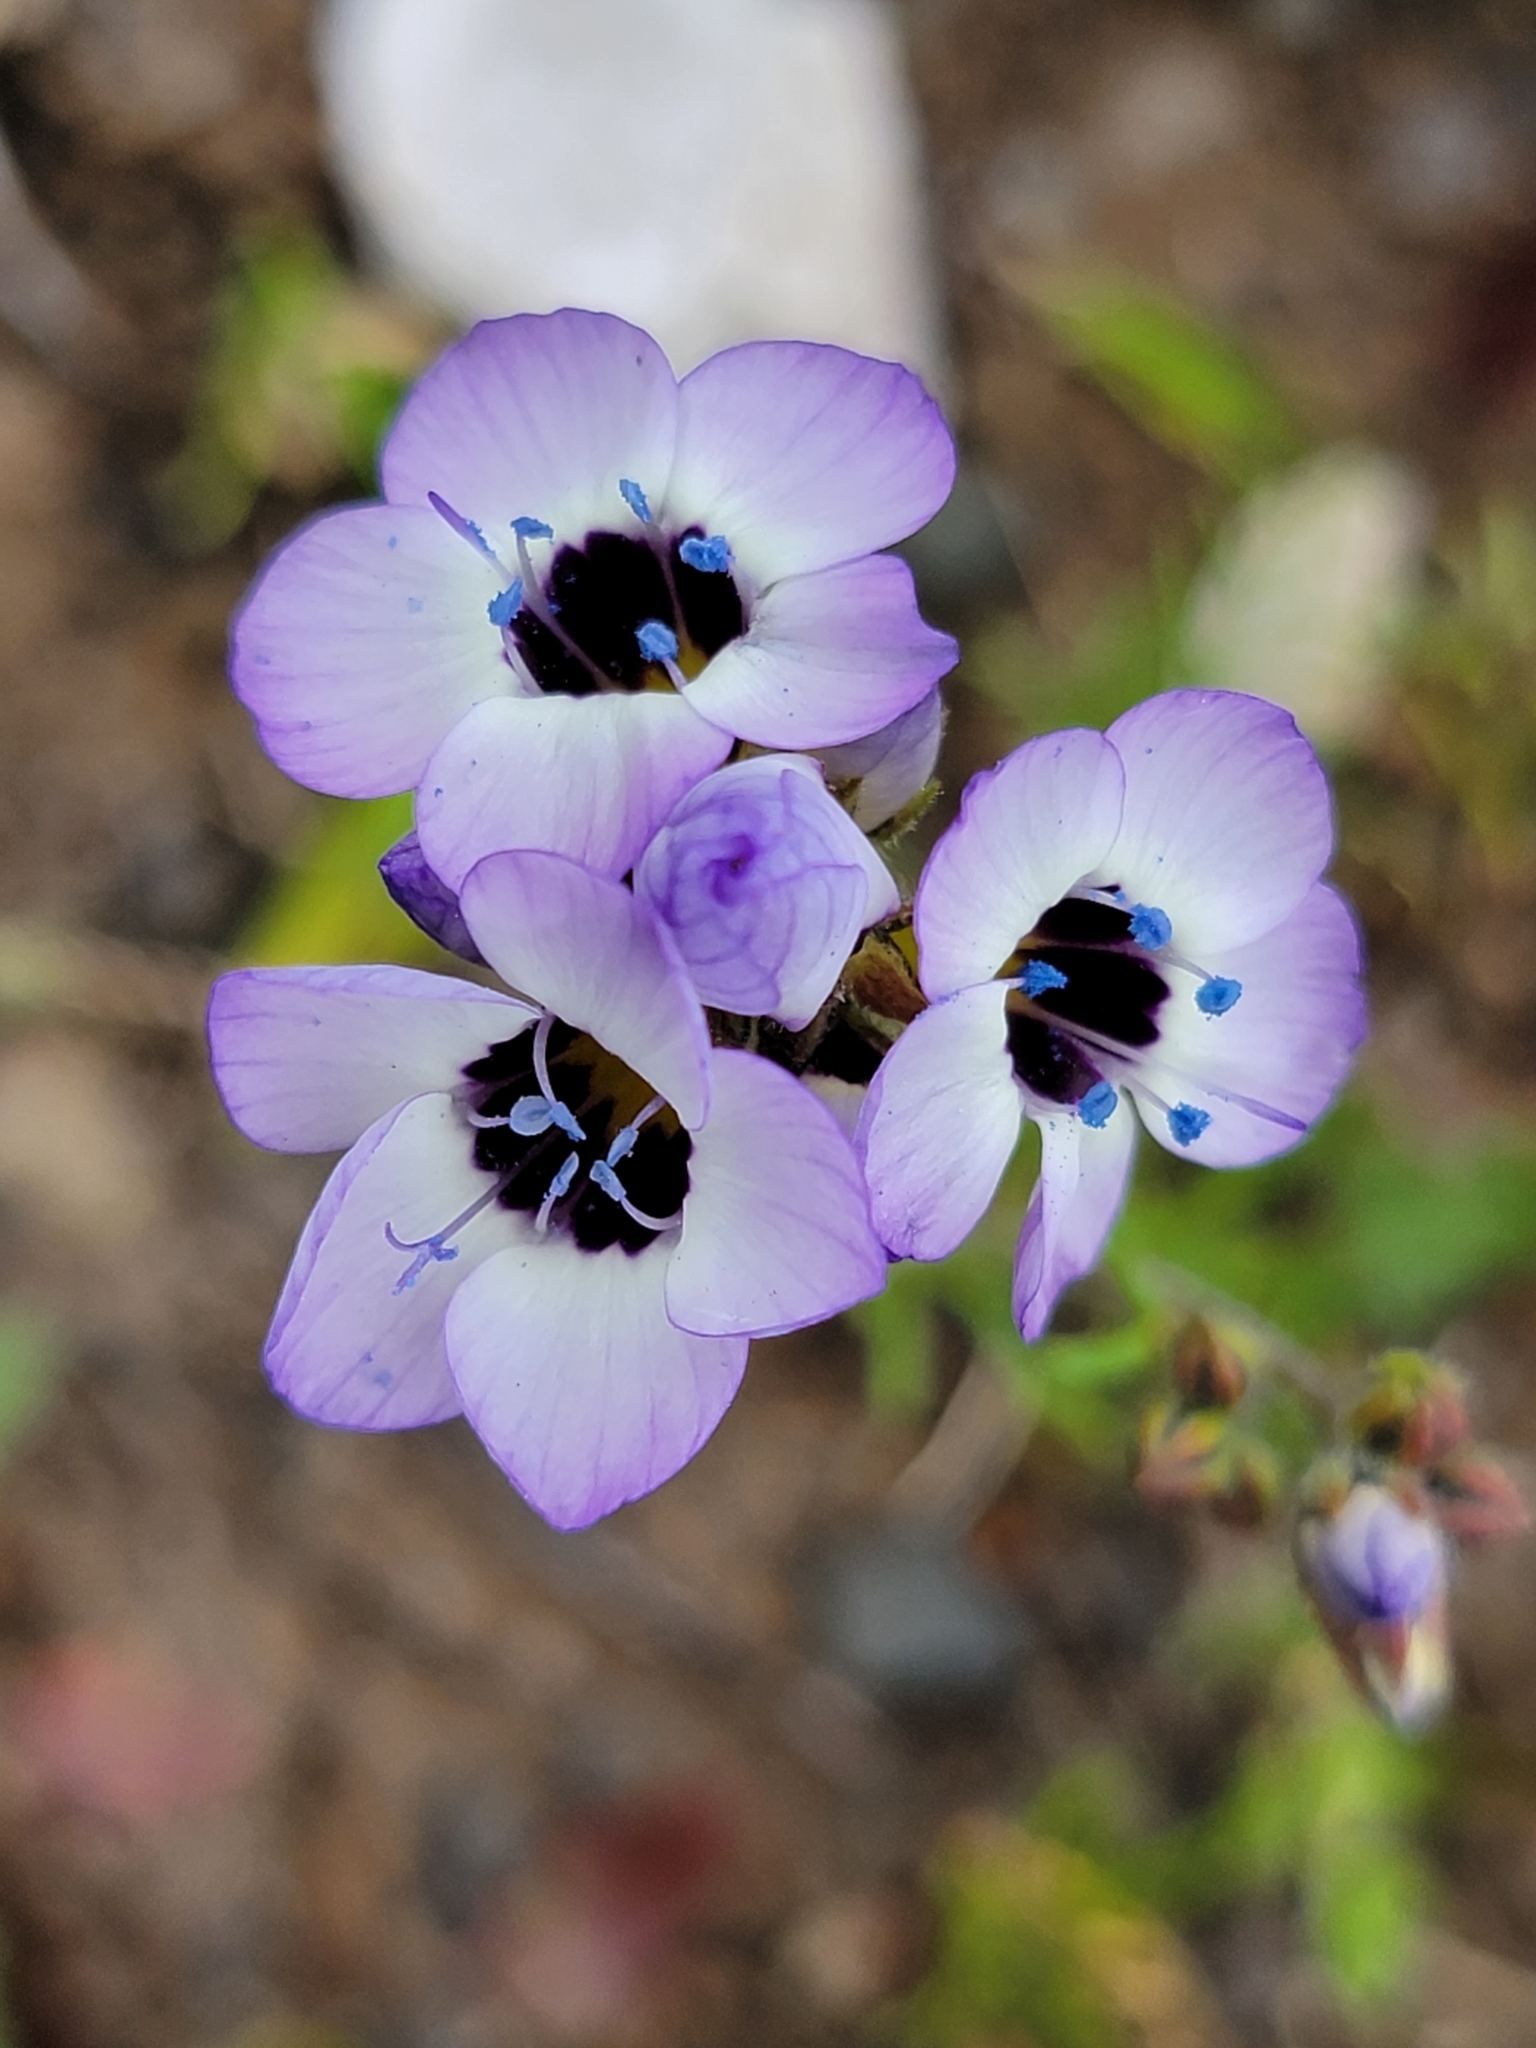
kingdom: Plantae
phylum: Tracheophyta
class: Magnoliopsida
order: Ericales
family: Polemoniaceae
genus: Gilia
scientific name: Gilia tricolor
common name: Bird's-eyes
